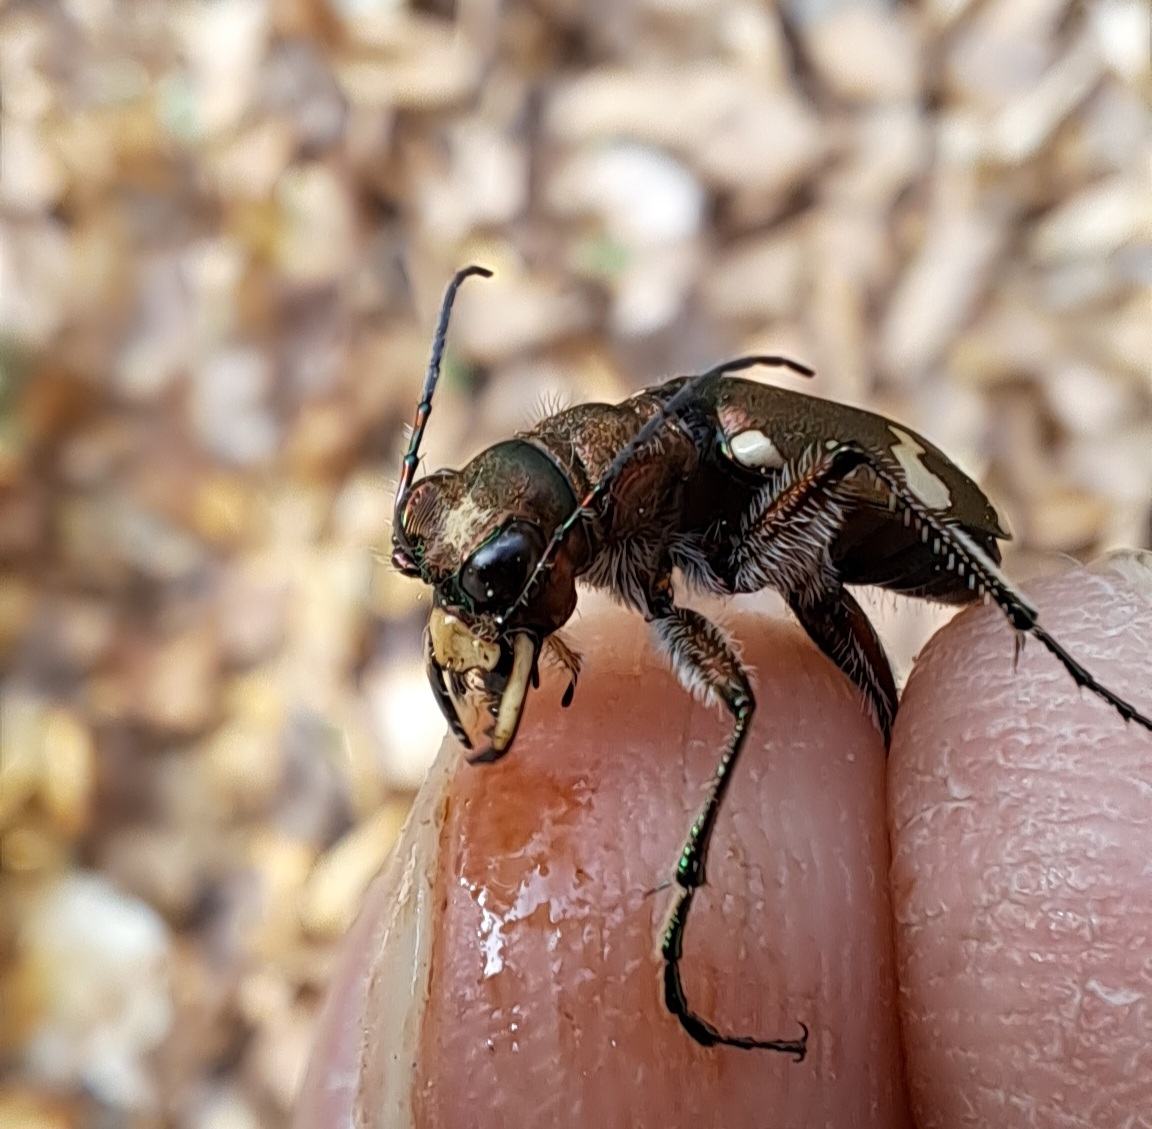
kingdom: Animalia
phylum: Arthropoda
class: Insecta
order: Coleoptera
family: Carabidae
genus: Cicindela
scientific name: Cicindela sylvicola
